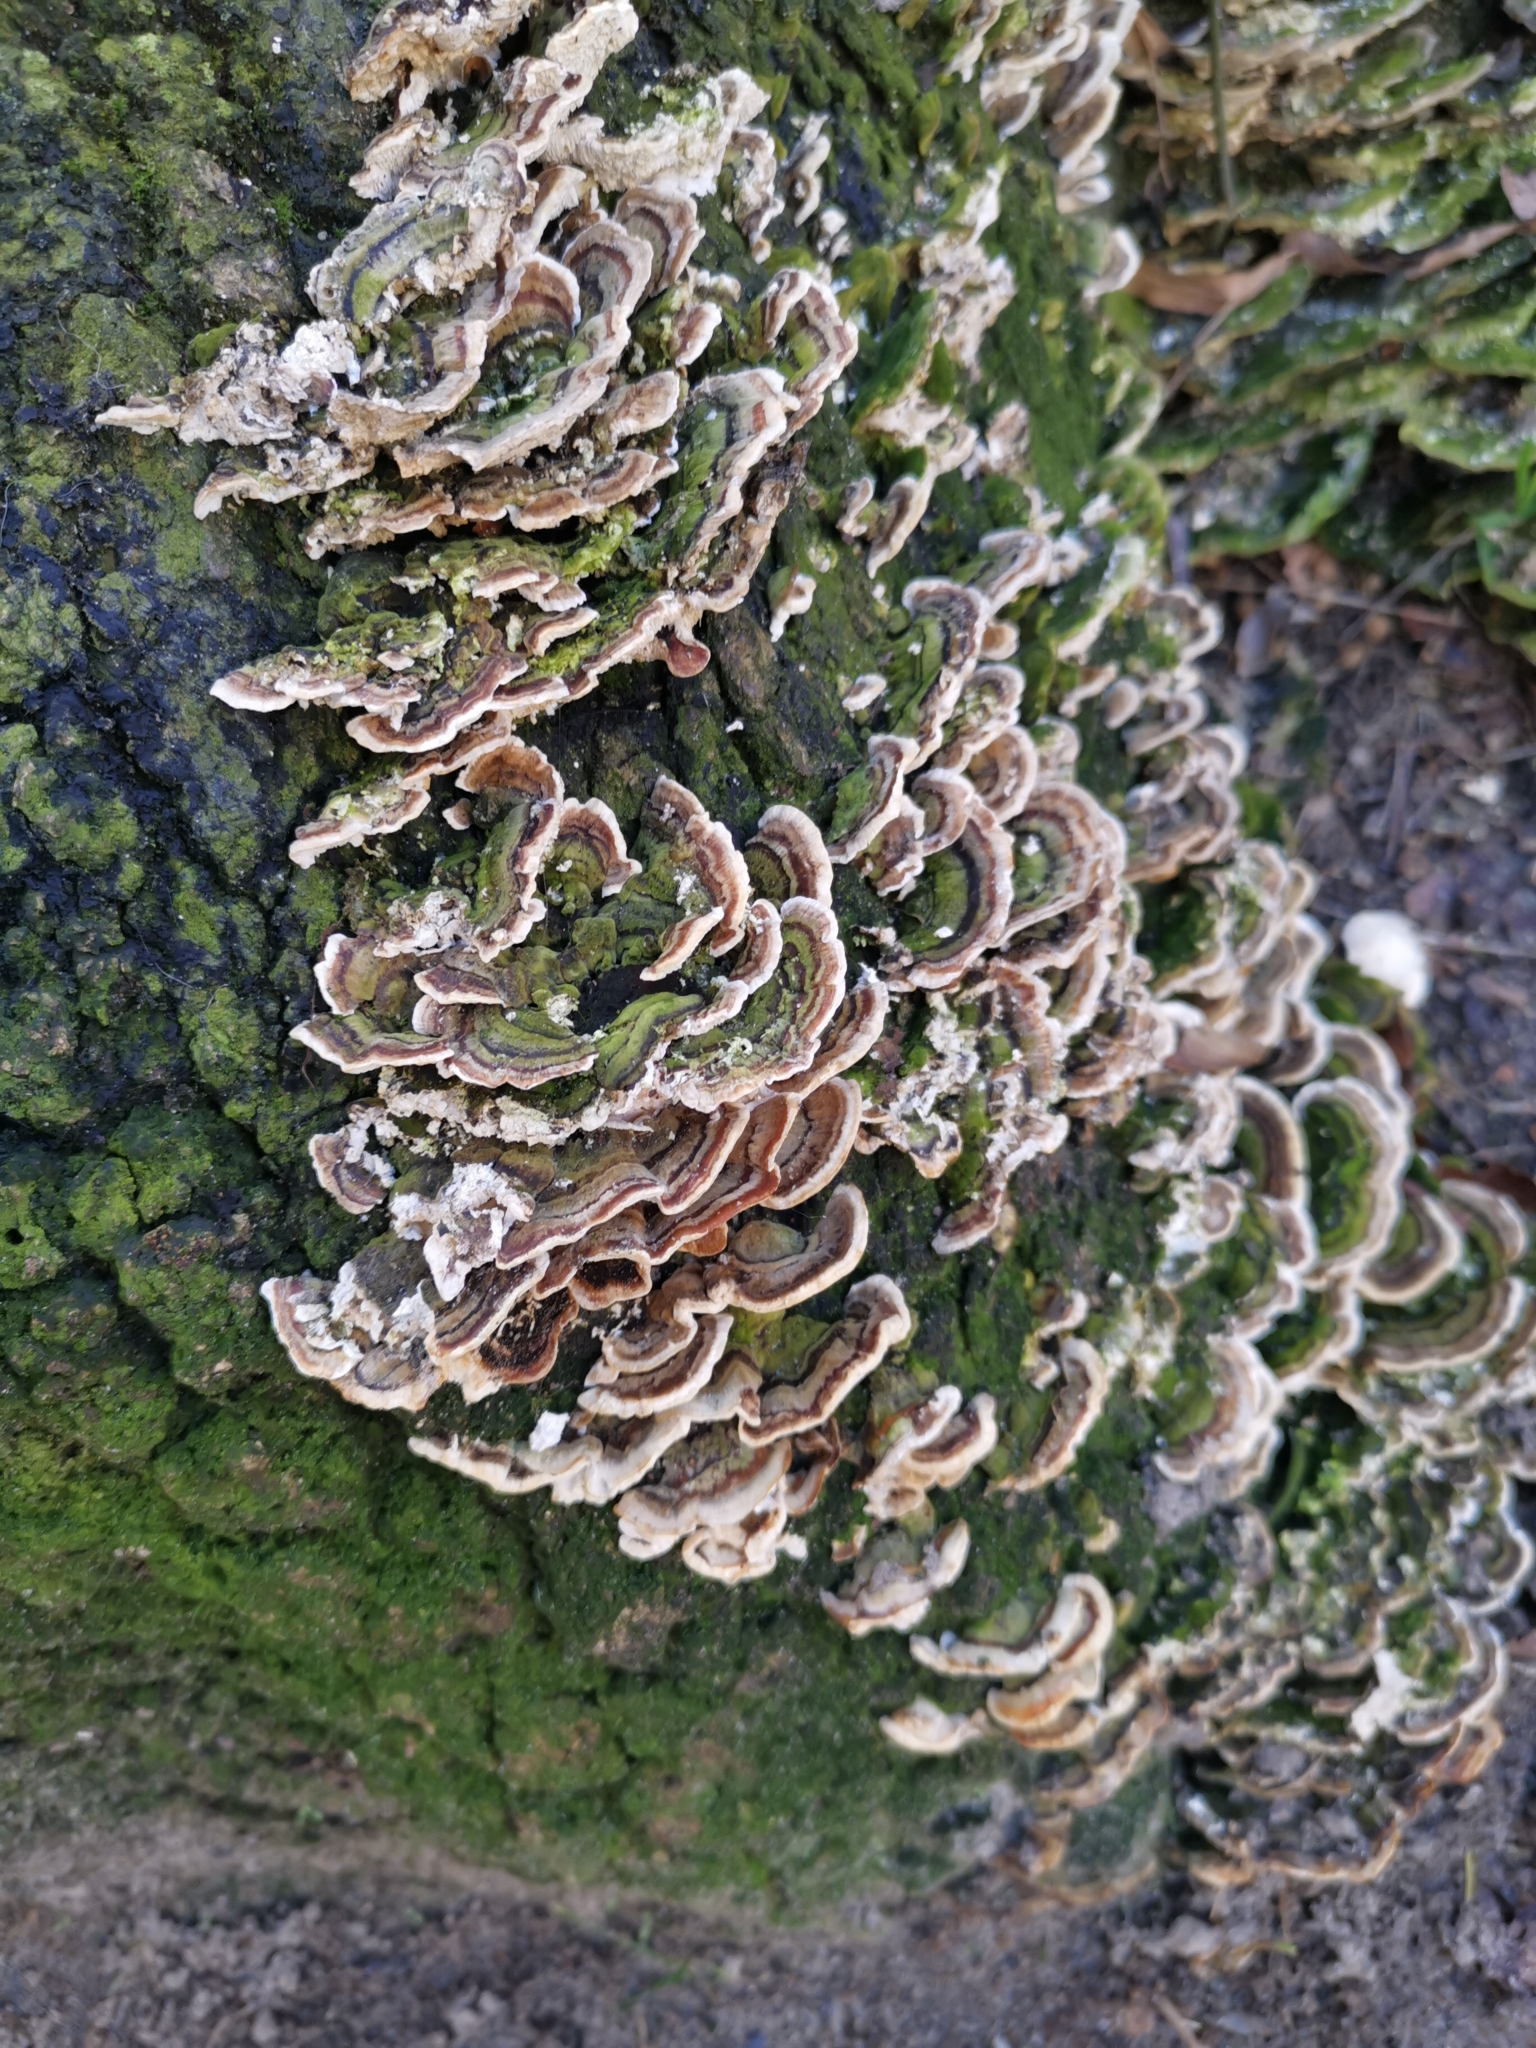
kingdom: Fungi
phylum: Basidiomycota
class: Agaricomycetes
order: Polyporales
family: Polyporaceae
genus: Trametes
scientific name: Trametes versicolor
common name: Turkeytail
